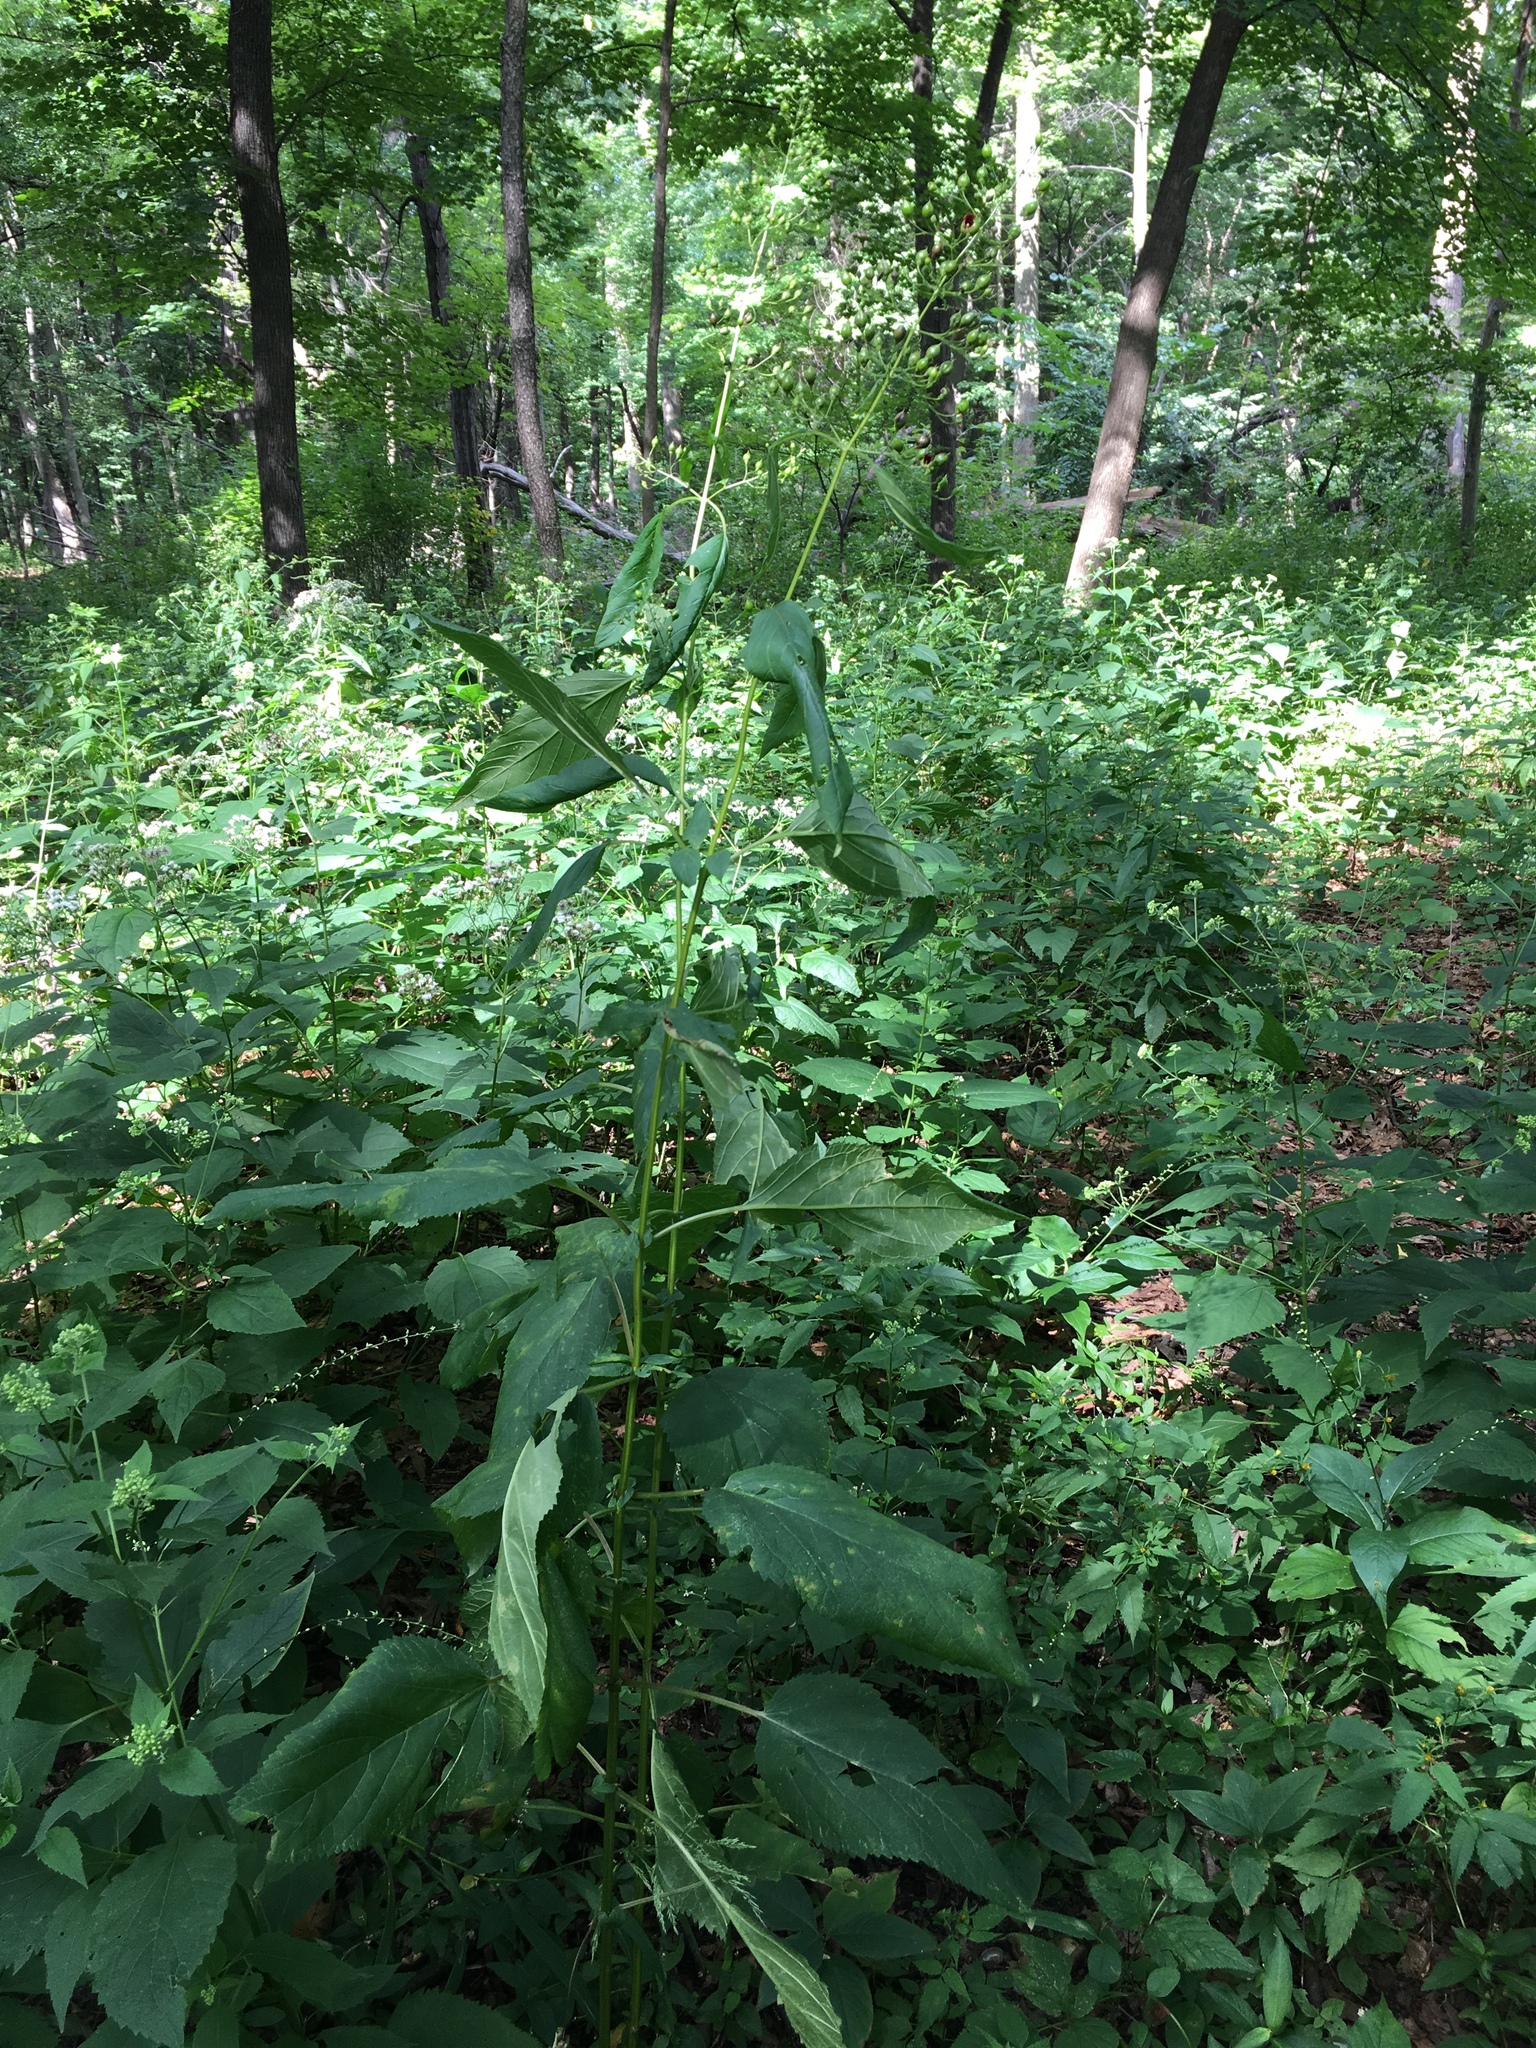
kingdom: Plantae
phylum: Tracheophyta
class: Magnoliopsida
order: Lamiales
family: Scrophulariaceae
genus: Scrophularia
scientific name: Scrophularia marilandica
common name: Eastern figwort
